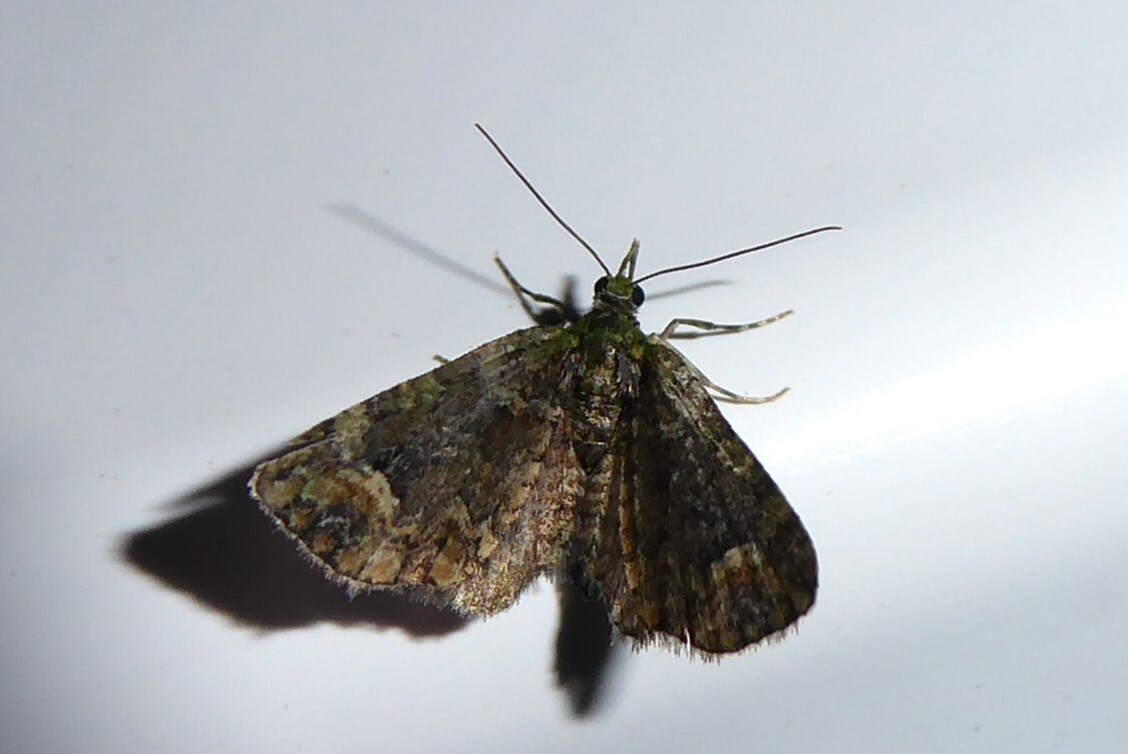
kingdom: Animalia
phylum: Arthropoda
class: Insecta
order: Lepidoptera
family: Geometridae
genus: Idaea
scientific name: Idaea mutanda
